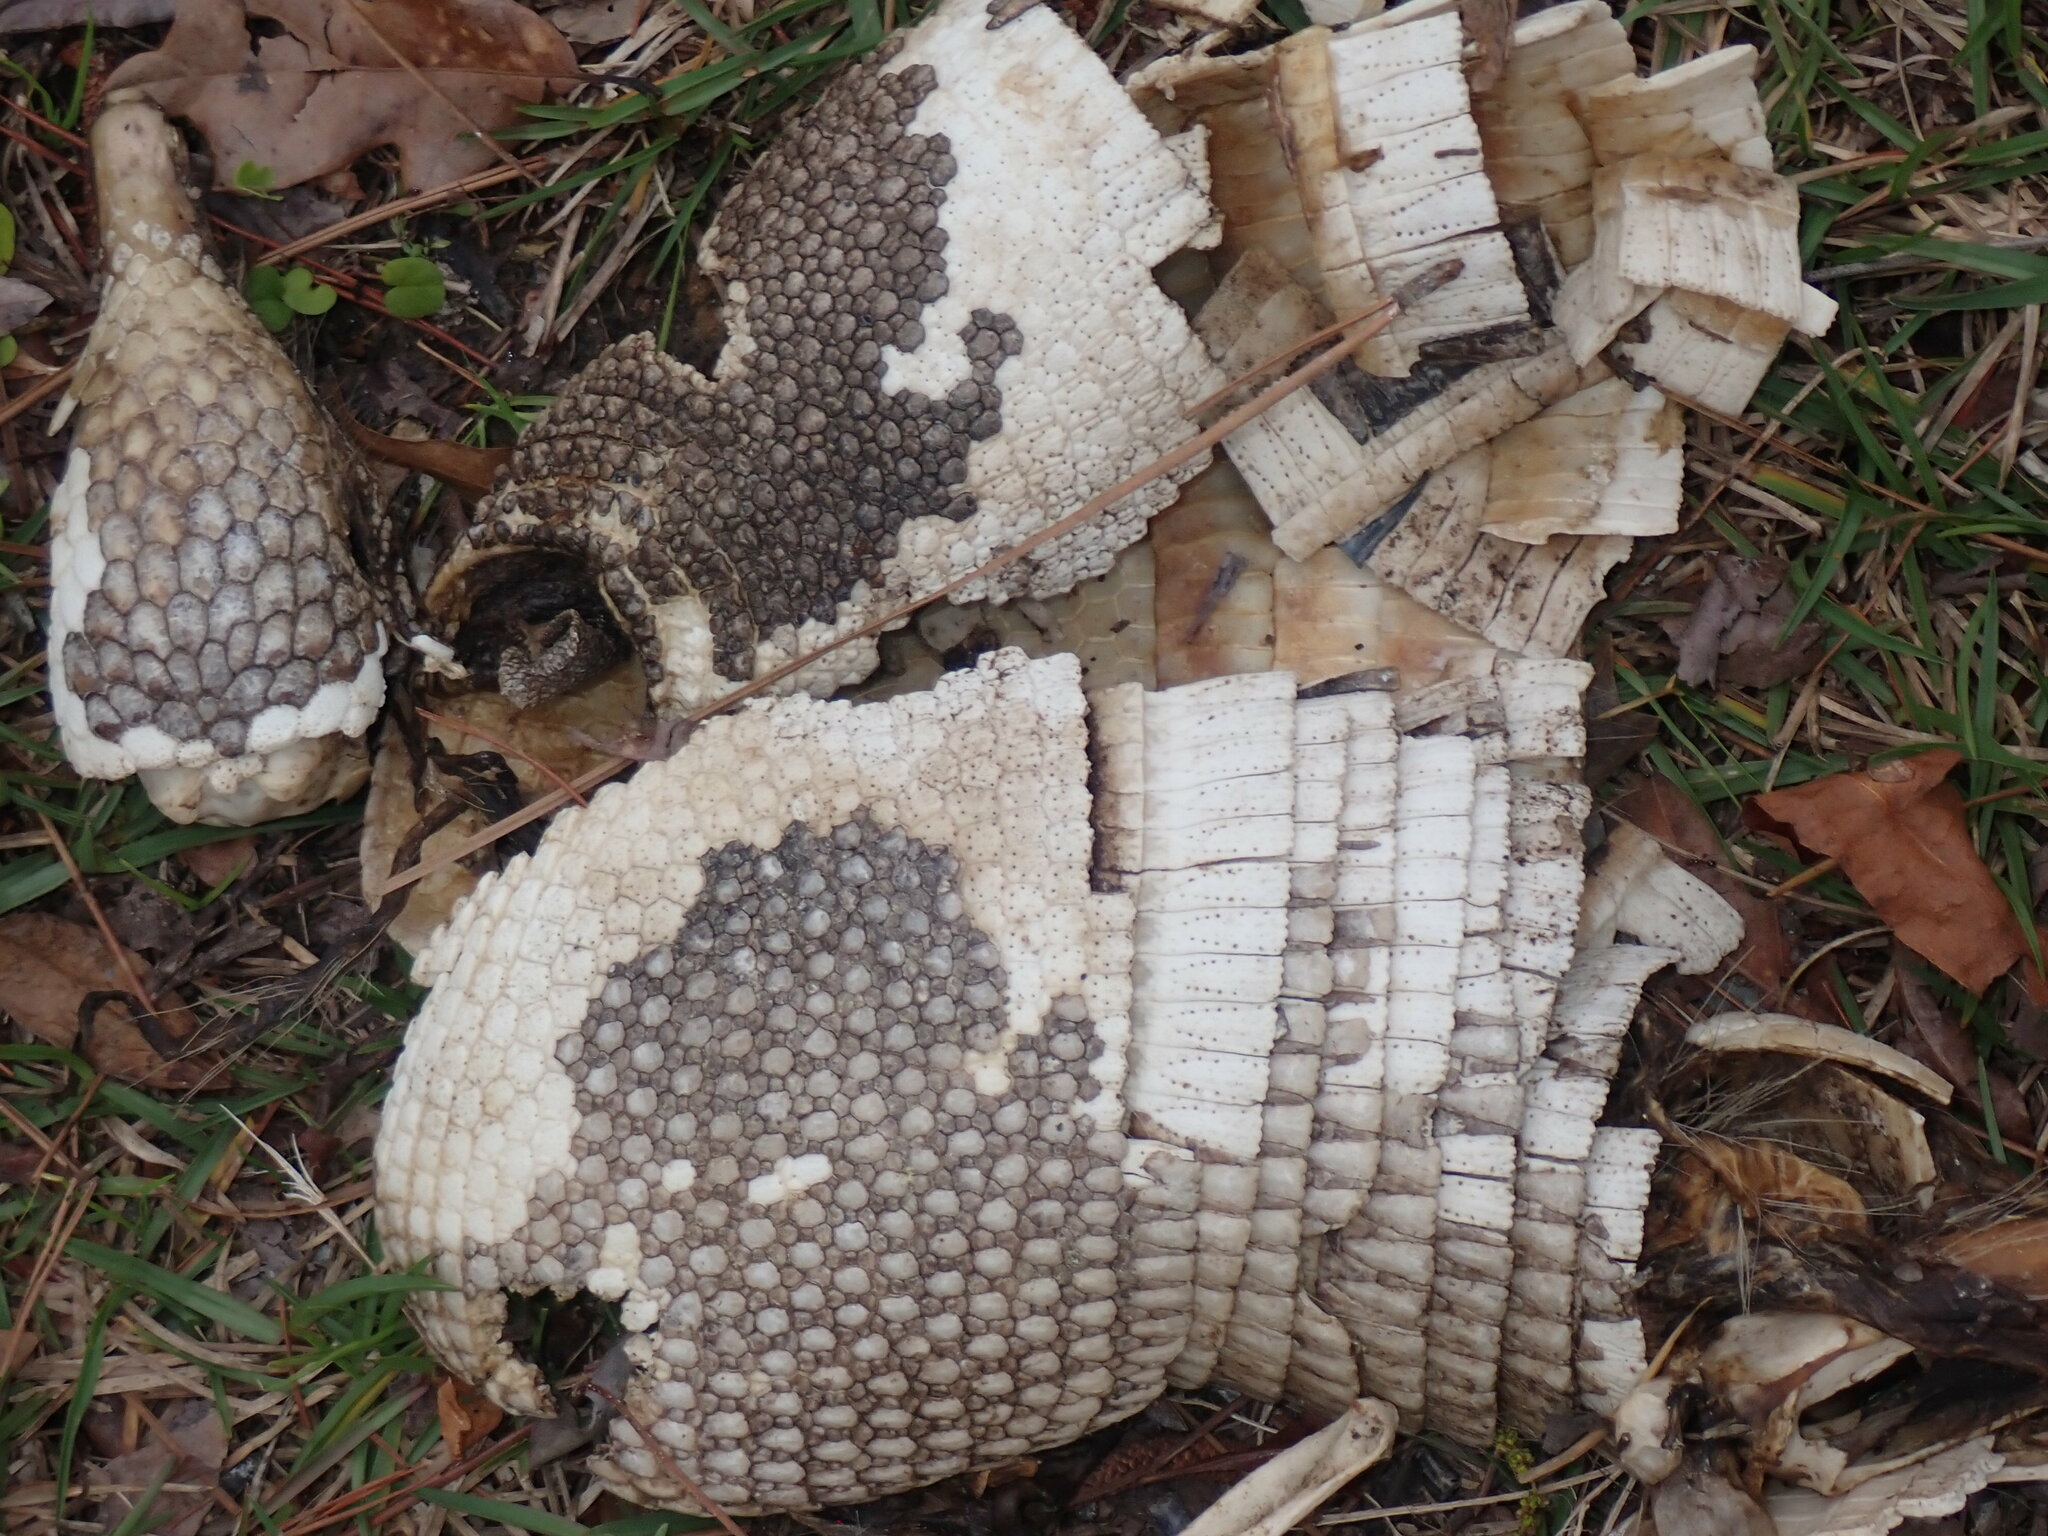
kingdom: Animalia
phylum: Chordata
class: Mammalia
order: Cingulata
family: Dasypodidae
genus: Dasypus
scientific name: Dasypus novemcinctus
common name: Nine-banded armadillo
